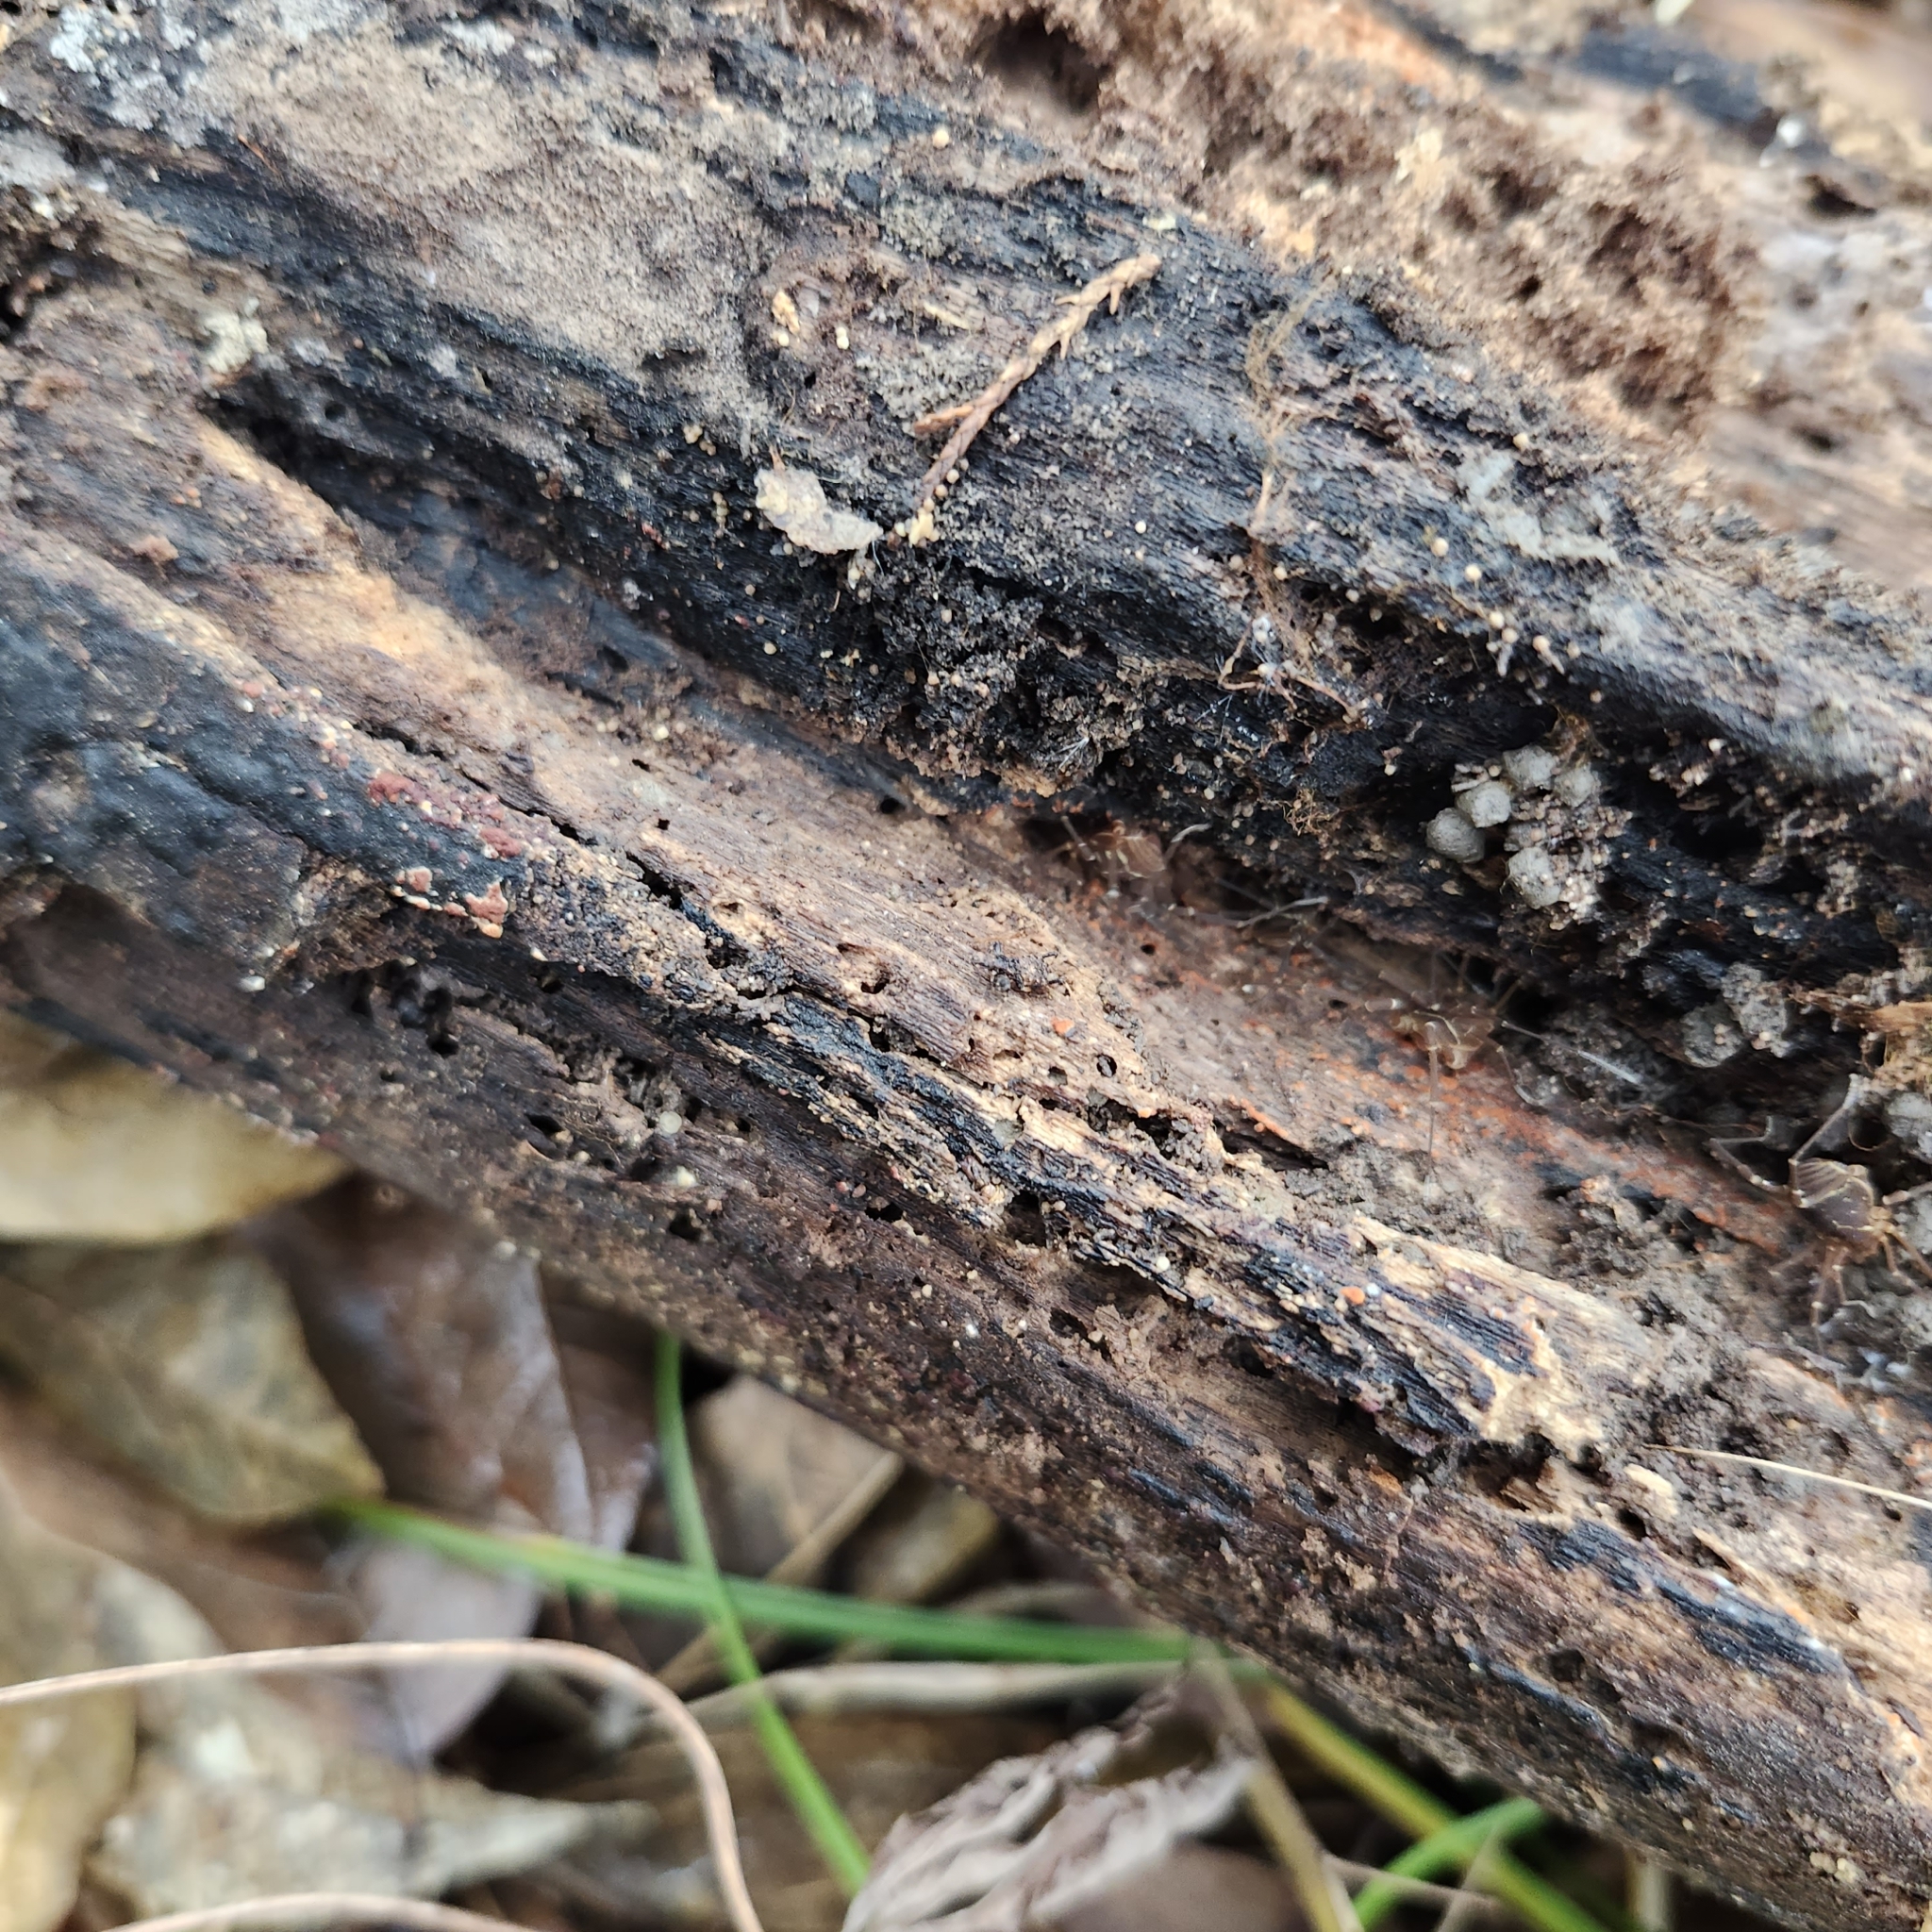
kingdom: Animalia
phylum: Arthropoda
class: Arachnida
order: Opiliones
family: Cosmetidae
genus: Libitioides
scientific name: Libitioides sayi
